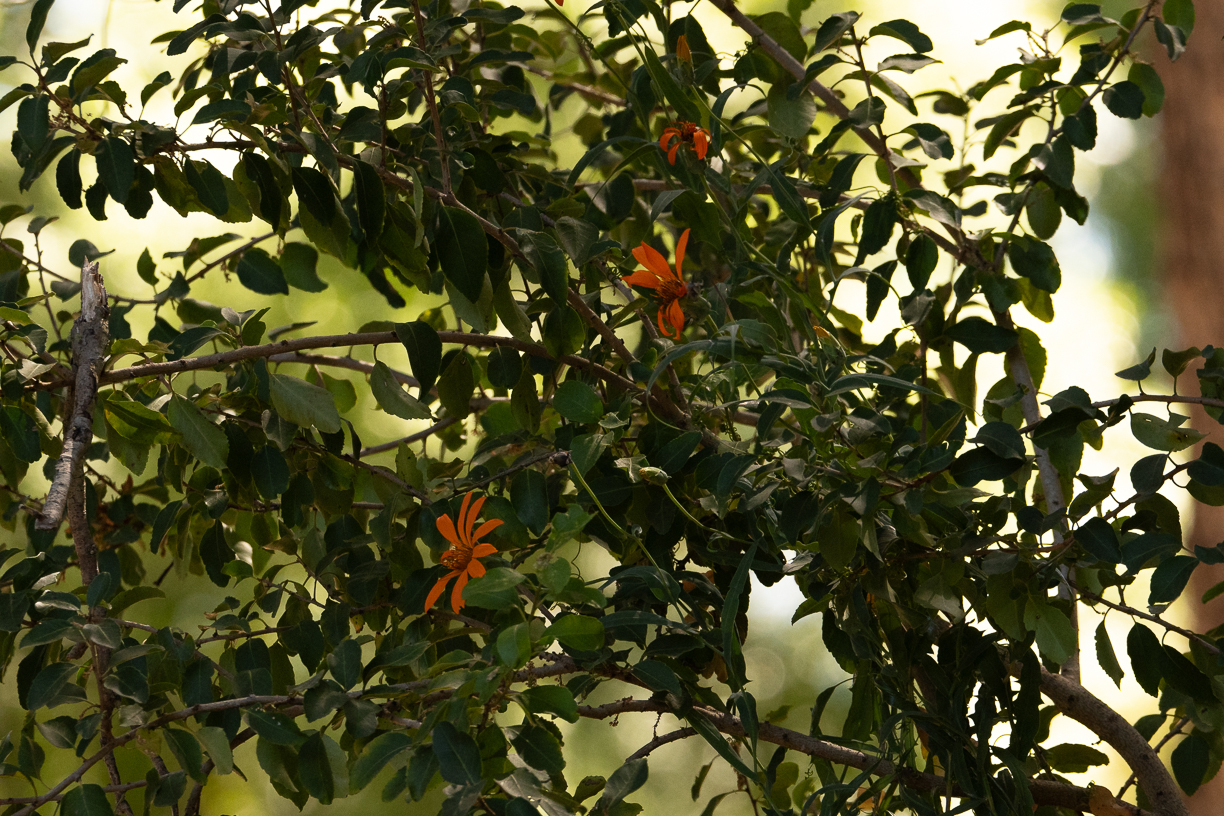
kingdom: Plantae
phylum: Tracheophyta
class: Magnoliopsida
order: Asterales
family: Asteraceae
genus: Mutisia
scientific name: Mutisia decurrens
